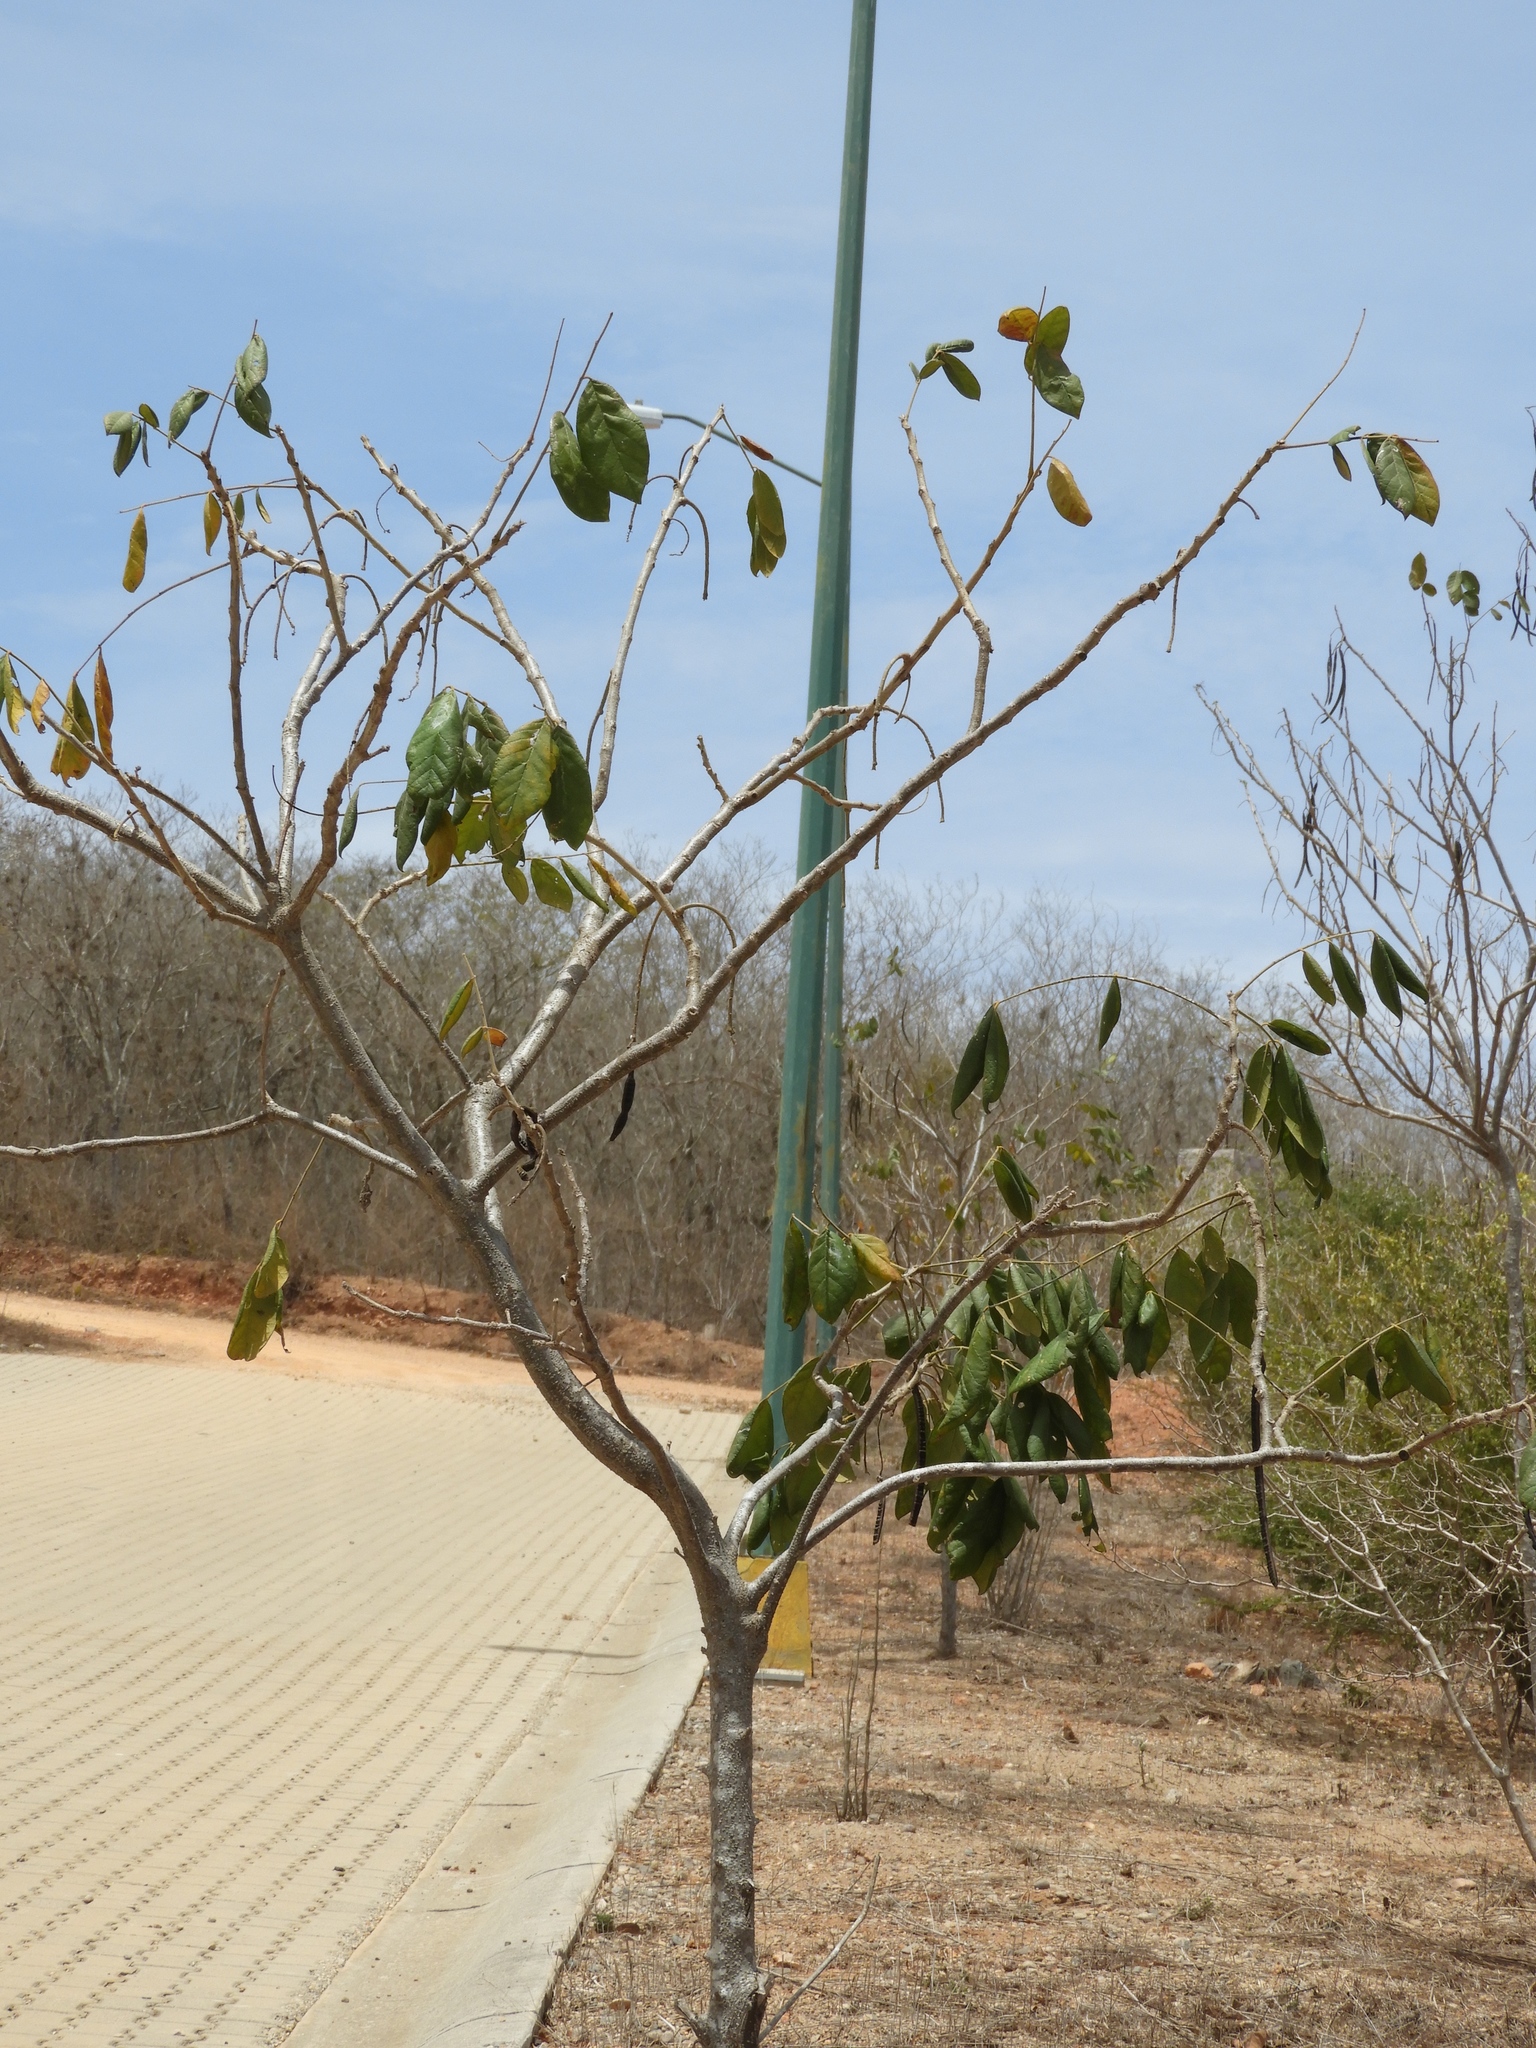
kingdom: Plantae
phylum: Tracheophyta
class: Magnoliopsida
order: Fabales
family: Fabaceae
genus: Senna
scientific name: Senna atomaria
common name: Flor de san jose
